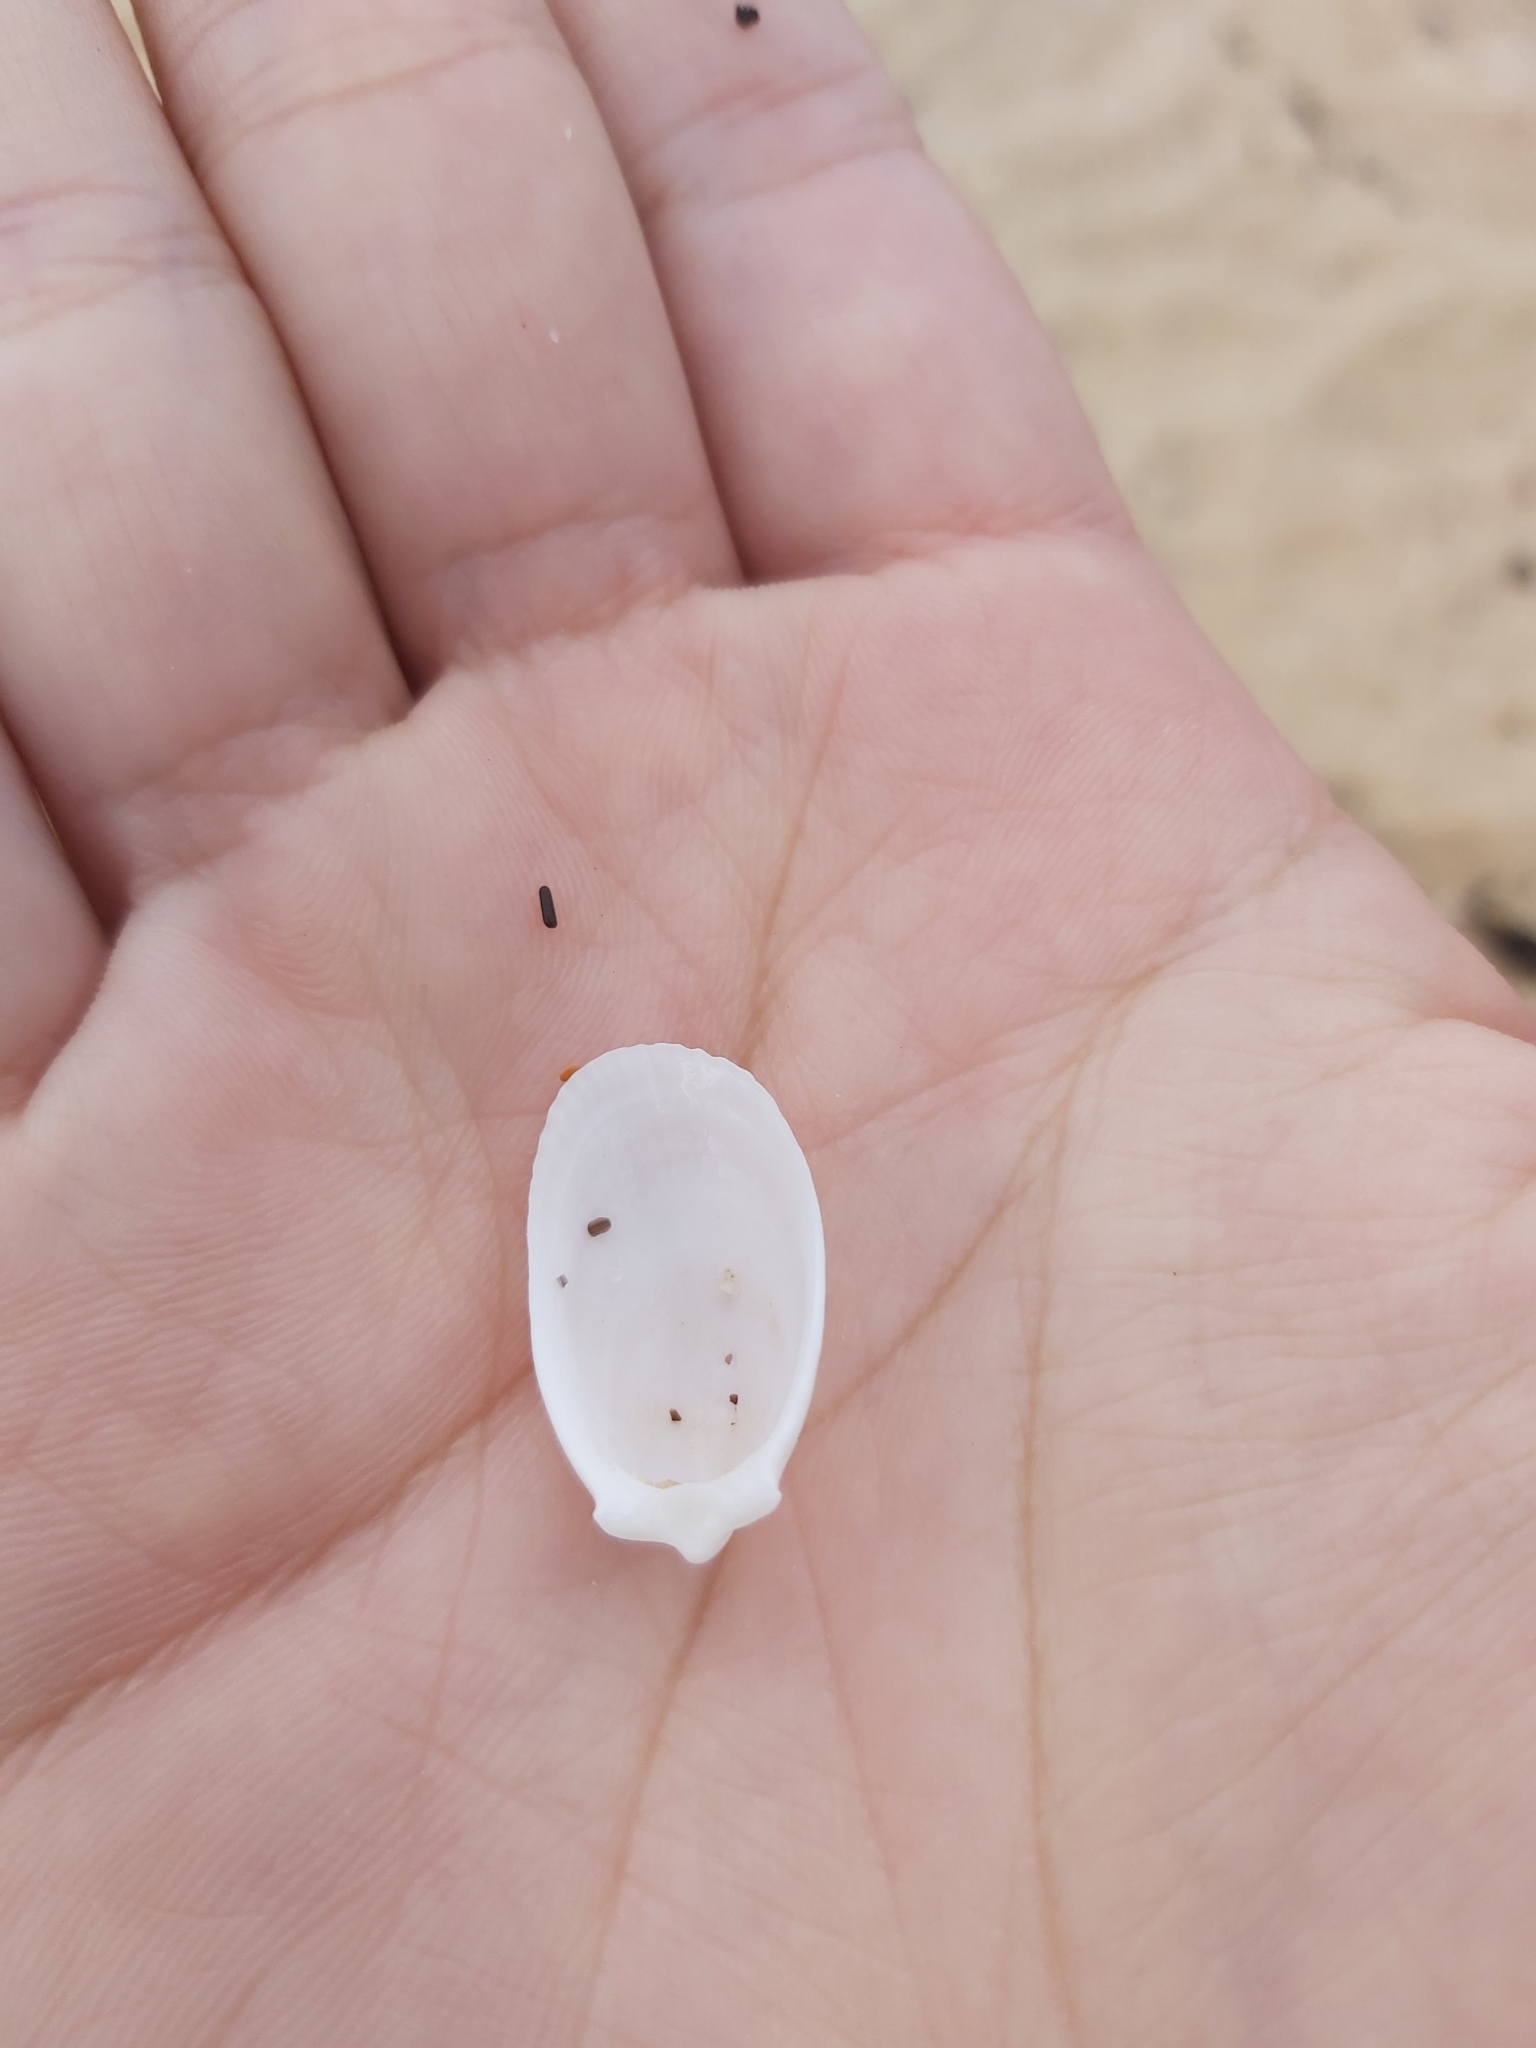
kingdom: Animalia
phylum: Mollusca
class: Bivalvia
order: Limida
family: Limidae
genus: Limatula
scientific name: Limatula strangei
